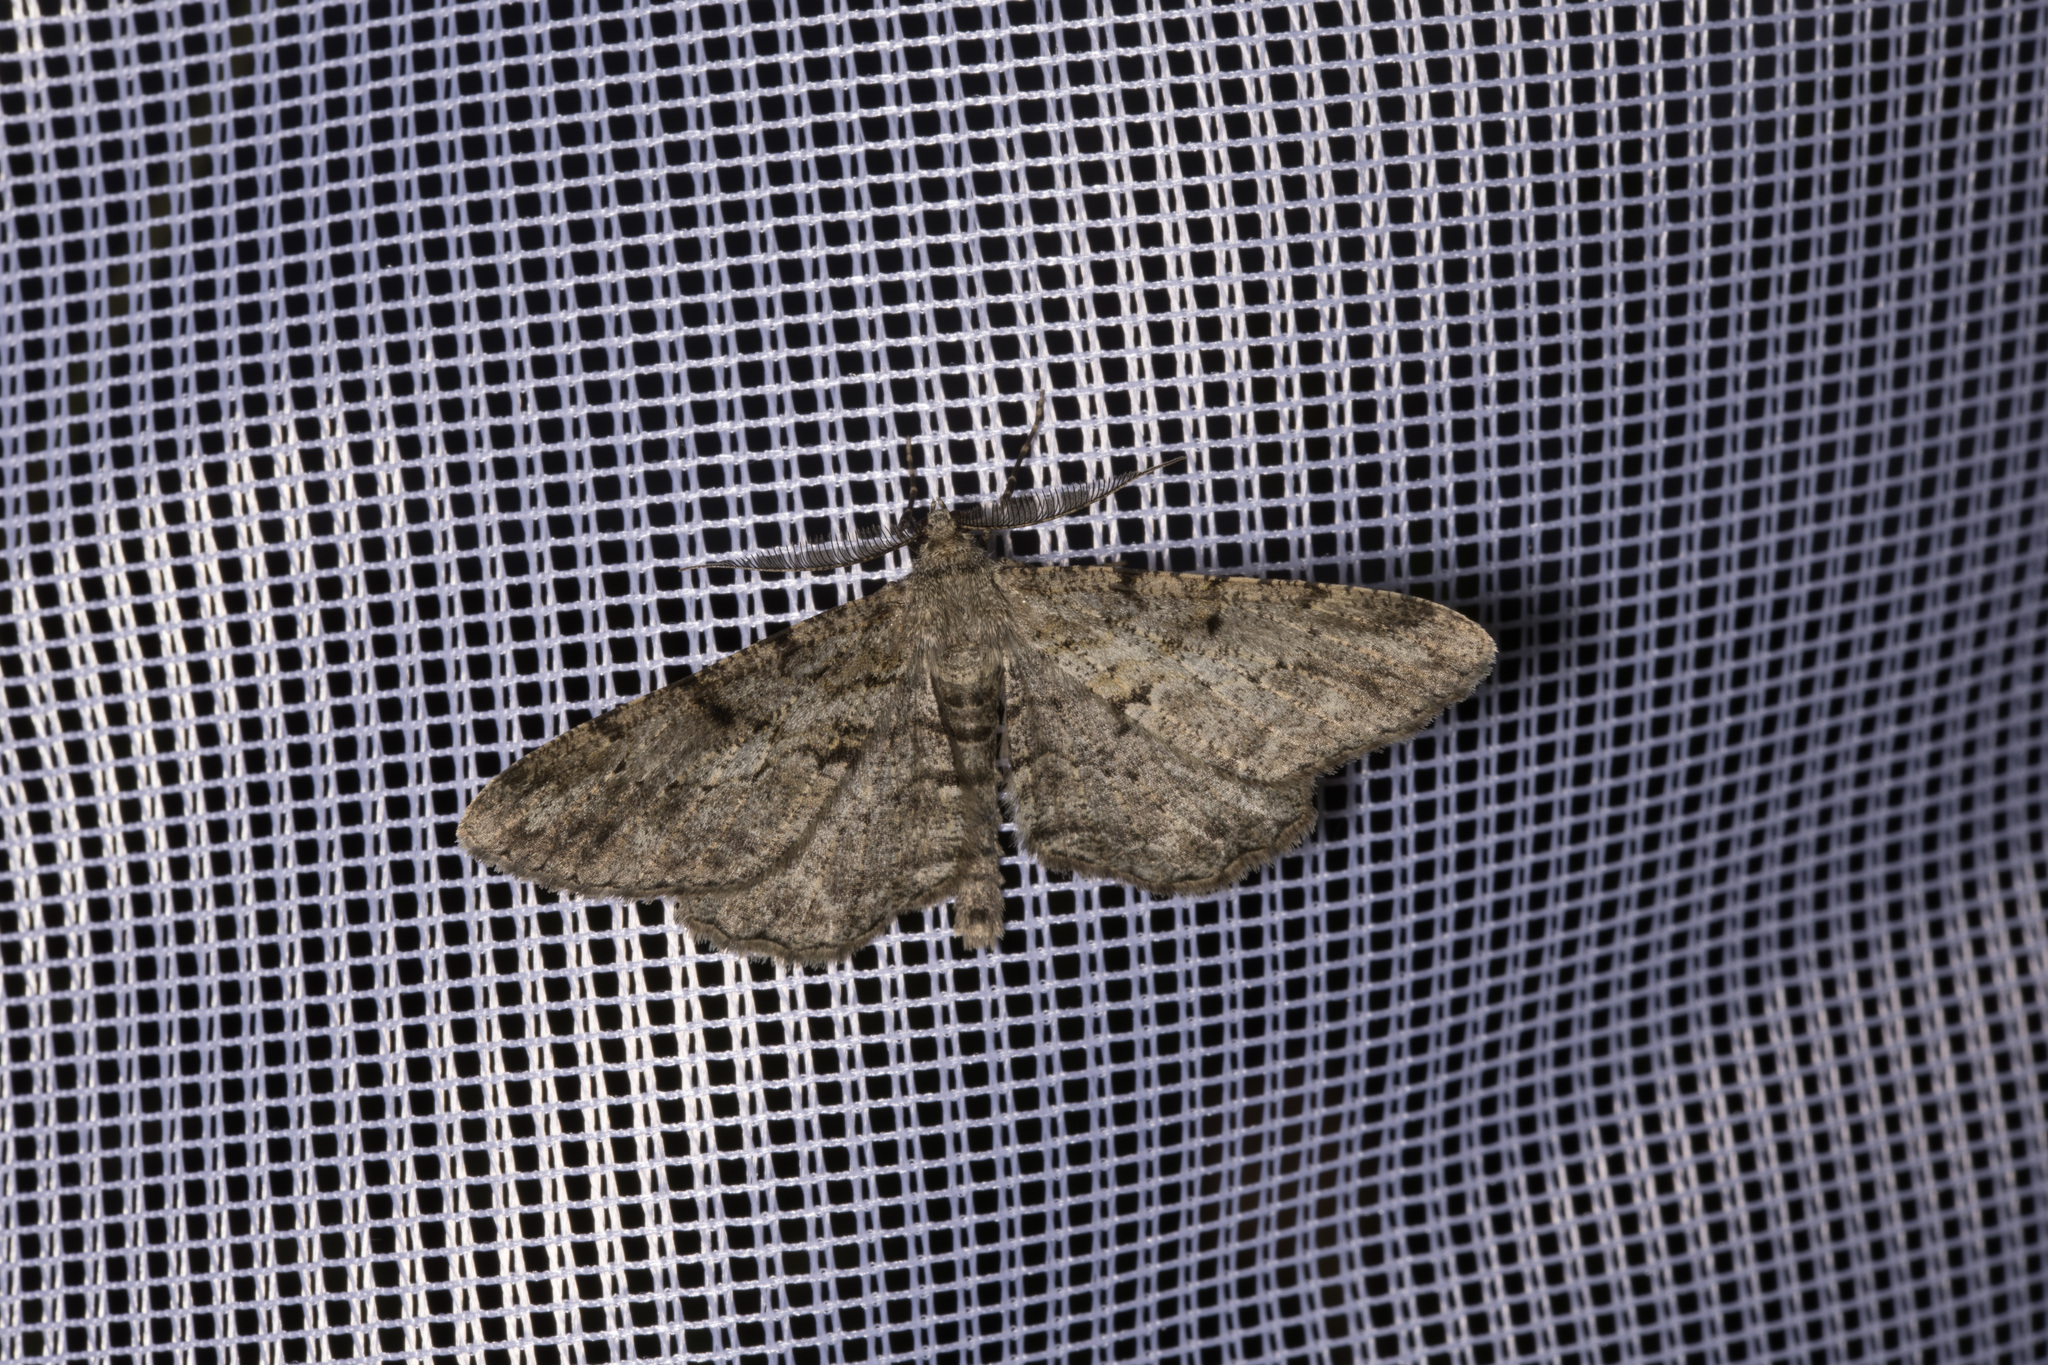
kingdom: Animalia
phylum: Arthropoda
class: Insecta
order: Lepidoptera
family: Geometridae
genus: Peribatodes
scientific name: Peribatodes rhomboidaria
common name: Willow beauty
